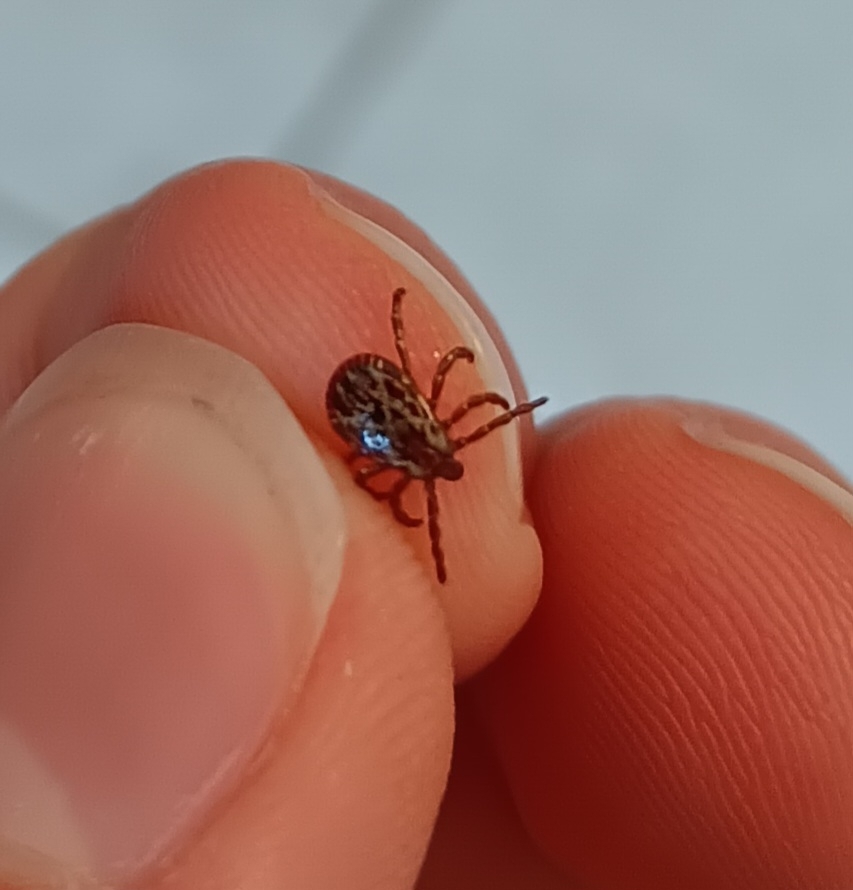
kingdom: Animalia
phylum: Arthropoda
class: Arachnida
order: Ixodida
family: Ixodidae
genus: Dermacentor
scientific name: Dermacentor variabilis
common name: American dog tick
